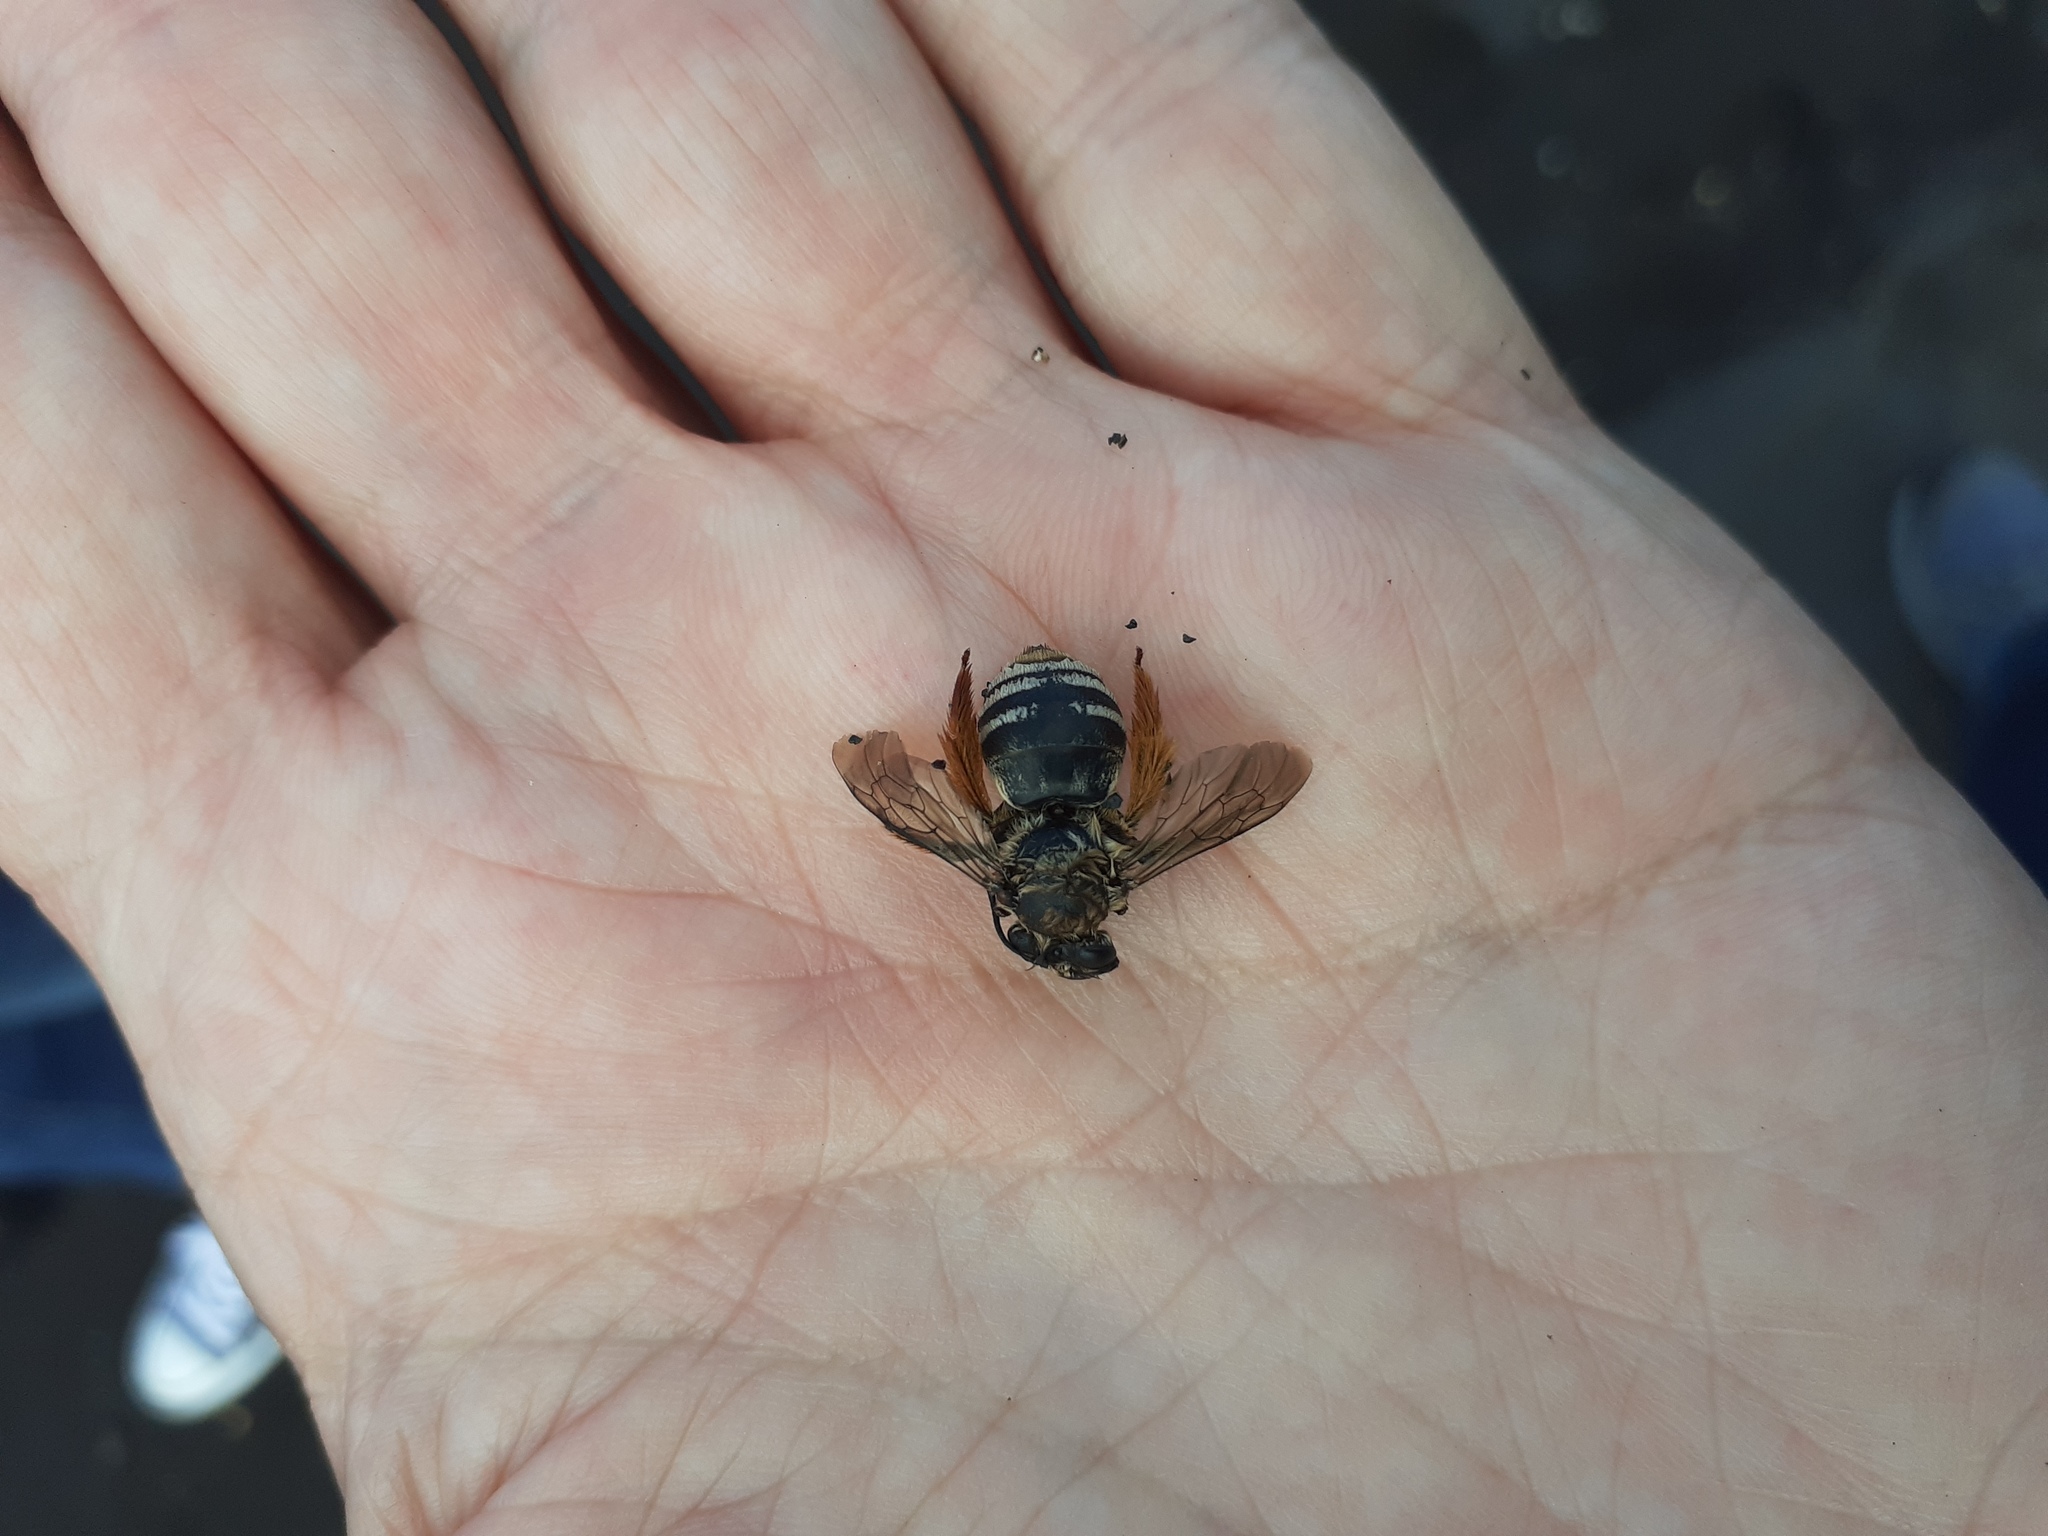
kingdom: Animalia
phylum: Arthropoda
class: Insecta
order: Hymenoptera
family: Apidae
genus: Eucera
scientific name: Eucera gracilipes
